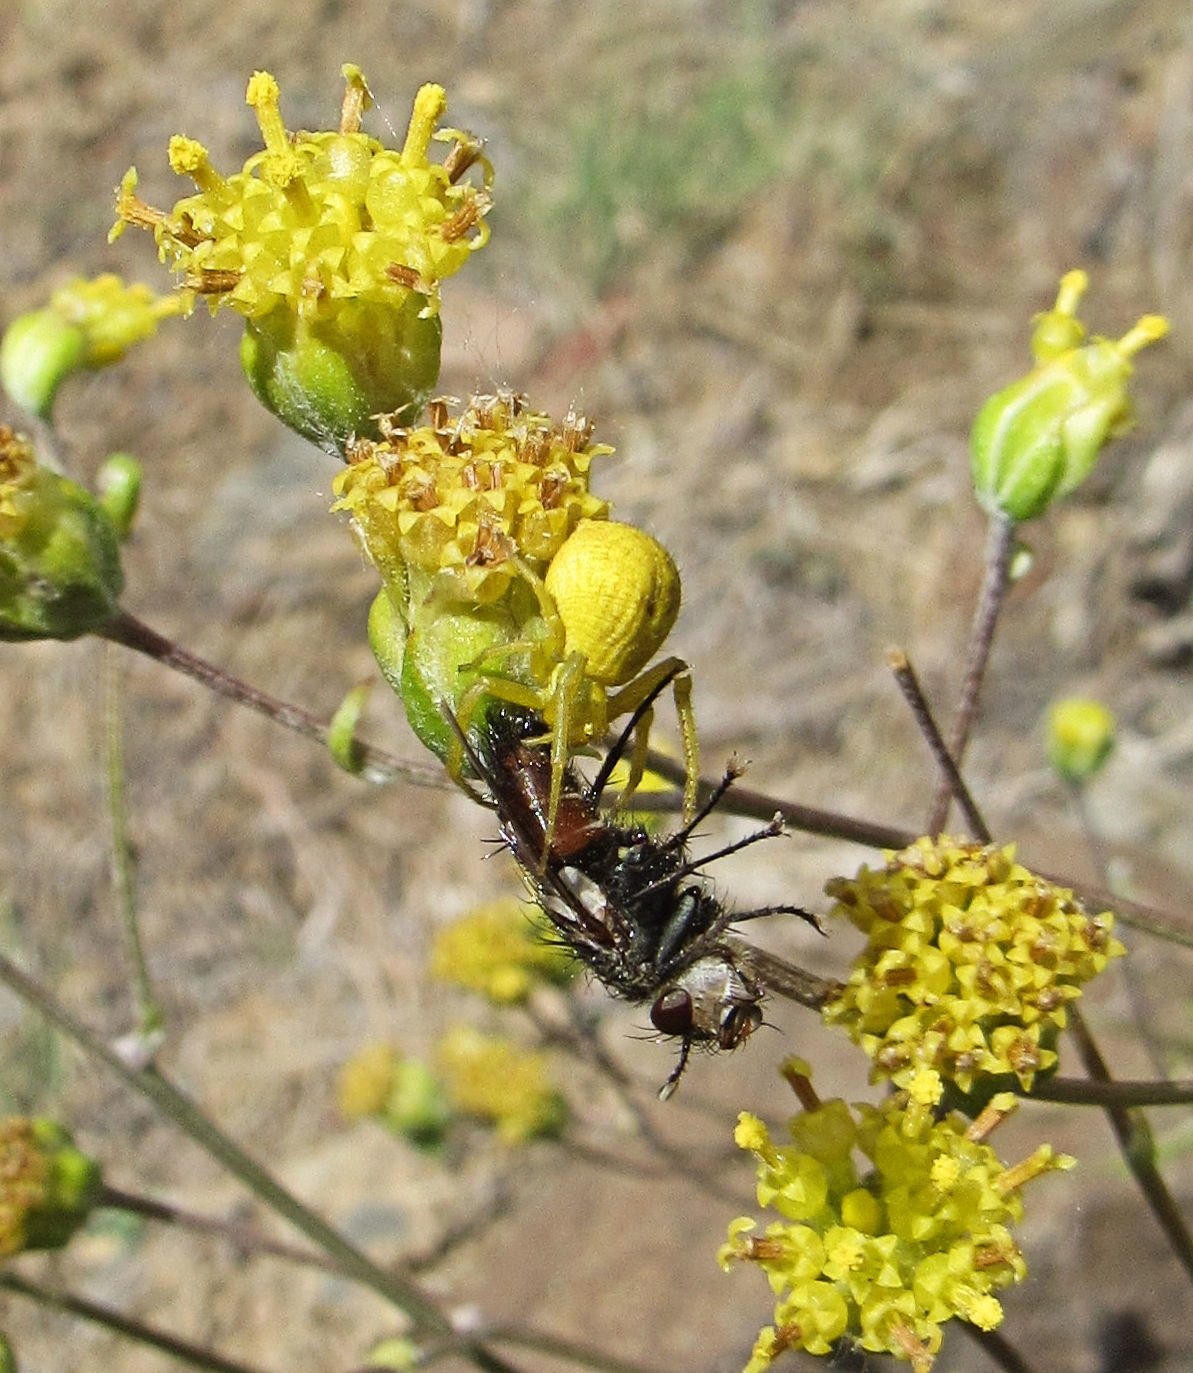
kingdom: Animalia
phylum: Arthropoda
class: Arachnida
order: Araneae
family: Thomisidae
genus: Misumena
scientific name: Misumena vatia
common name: Goldenrod crab spider
